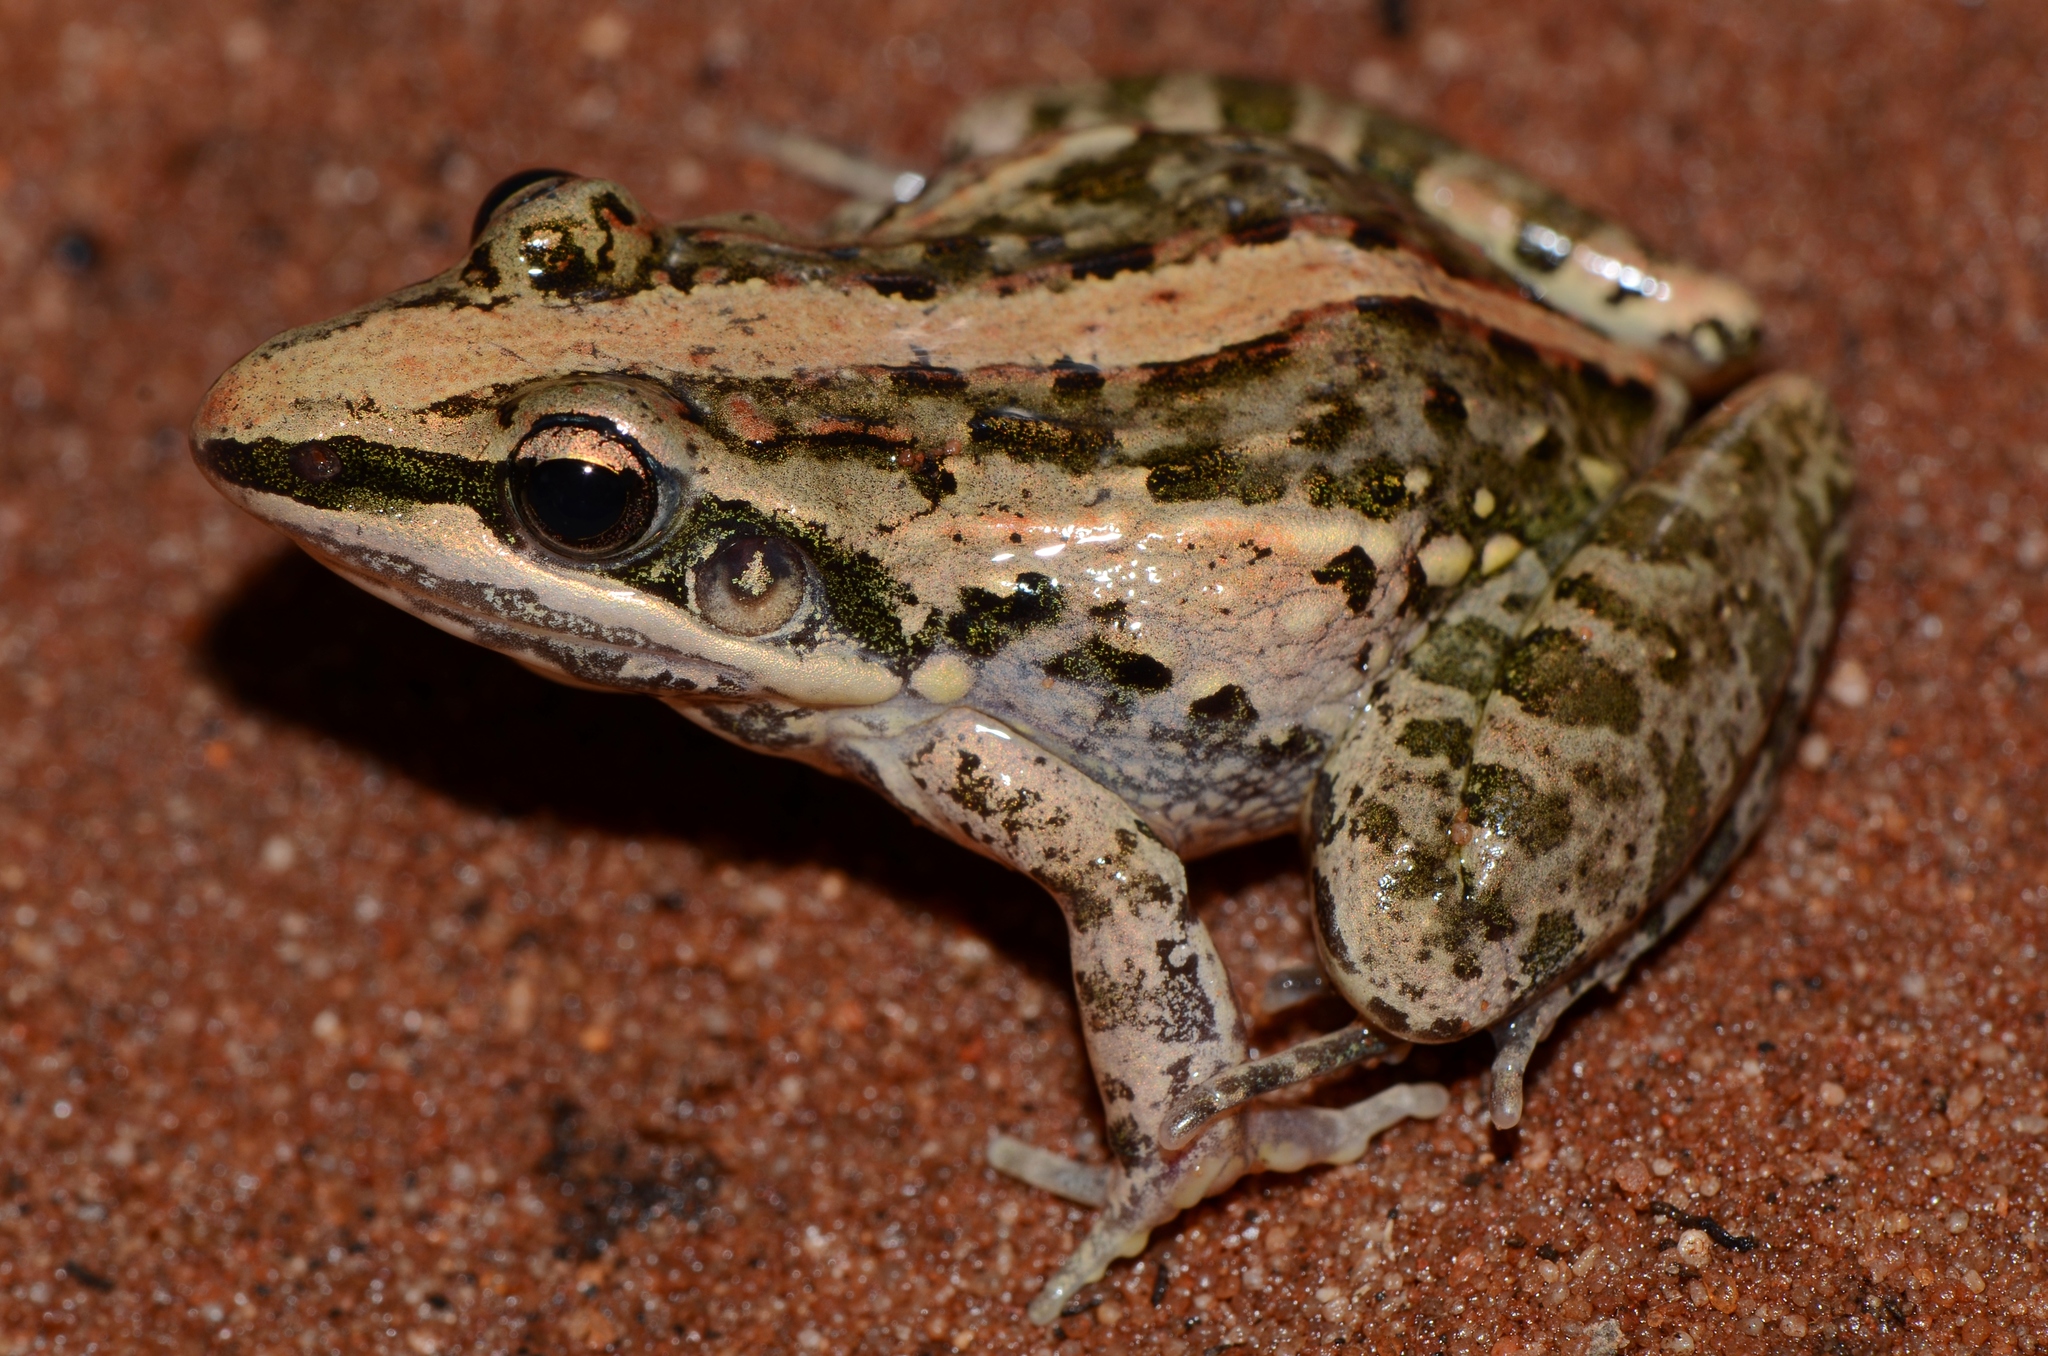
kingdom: Animalia
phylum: Chordata
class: Amphibia
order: Anura
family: Ptychadenidae
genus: Ptychadena
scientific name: Ptychadena mossambica
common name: Mozambique ridged frog
